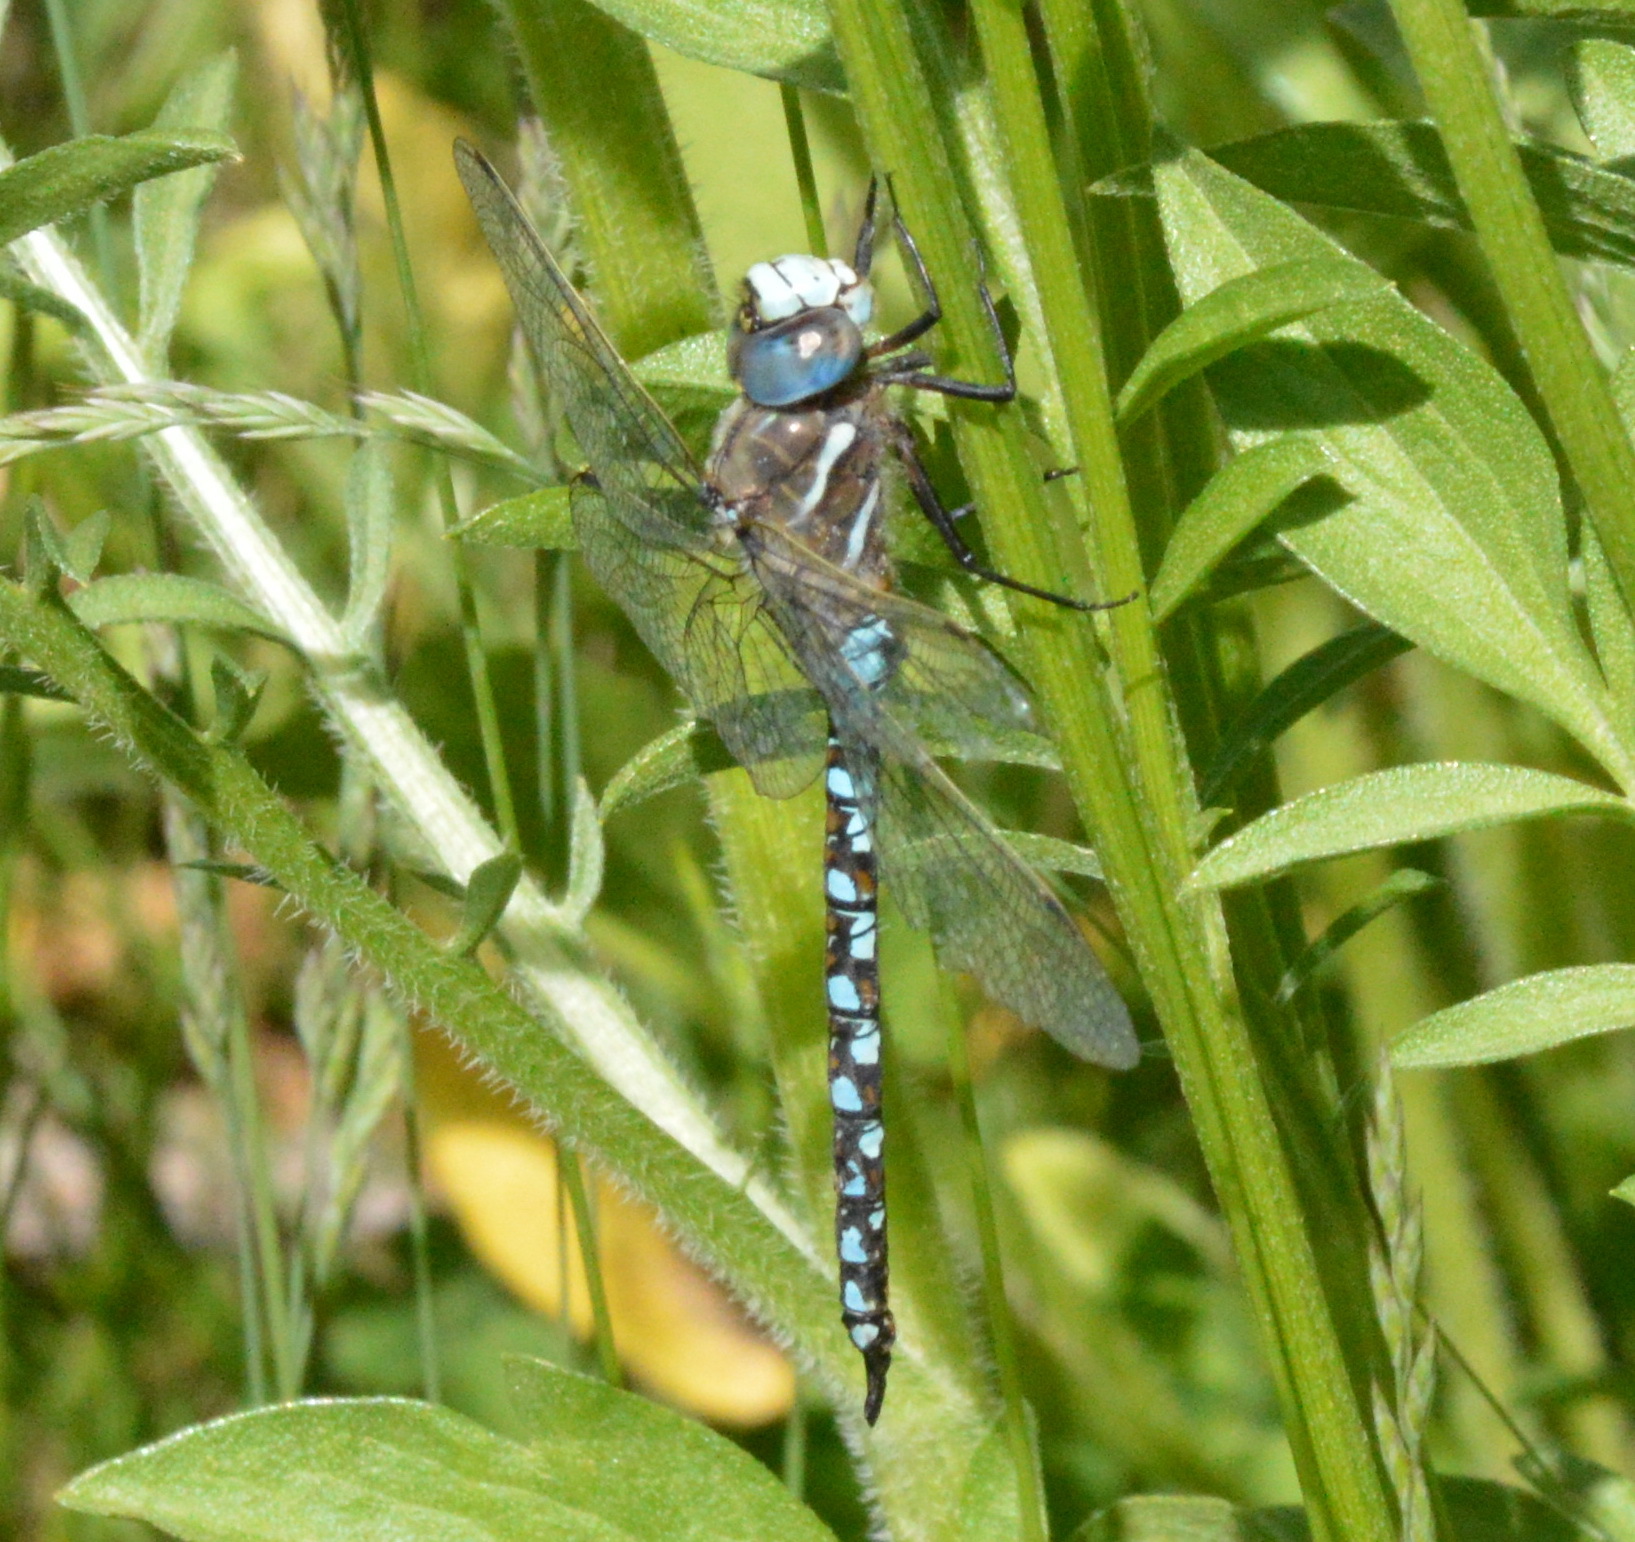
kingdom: Animalia
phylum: Arthropoda
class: Insecta
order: Odonata
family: Aeshnidae
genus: Rhionaeschna
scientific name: Rhionaeschna californica
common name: California darner
